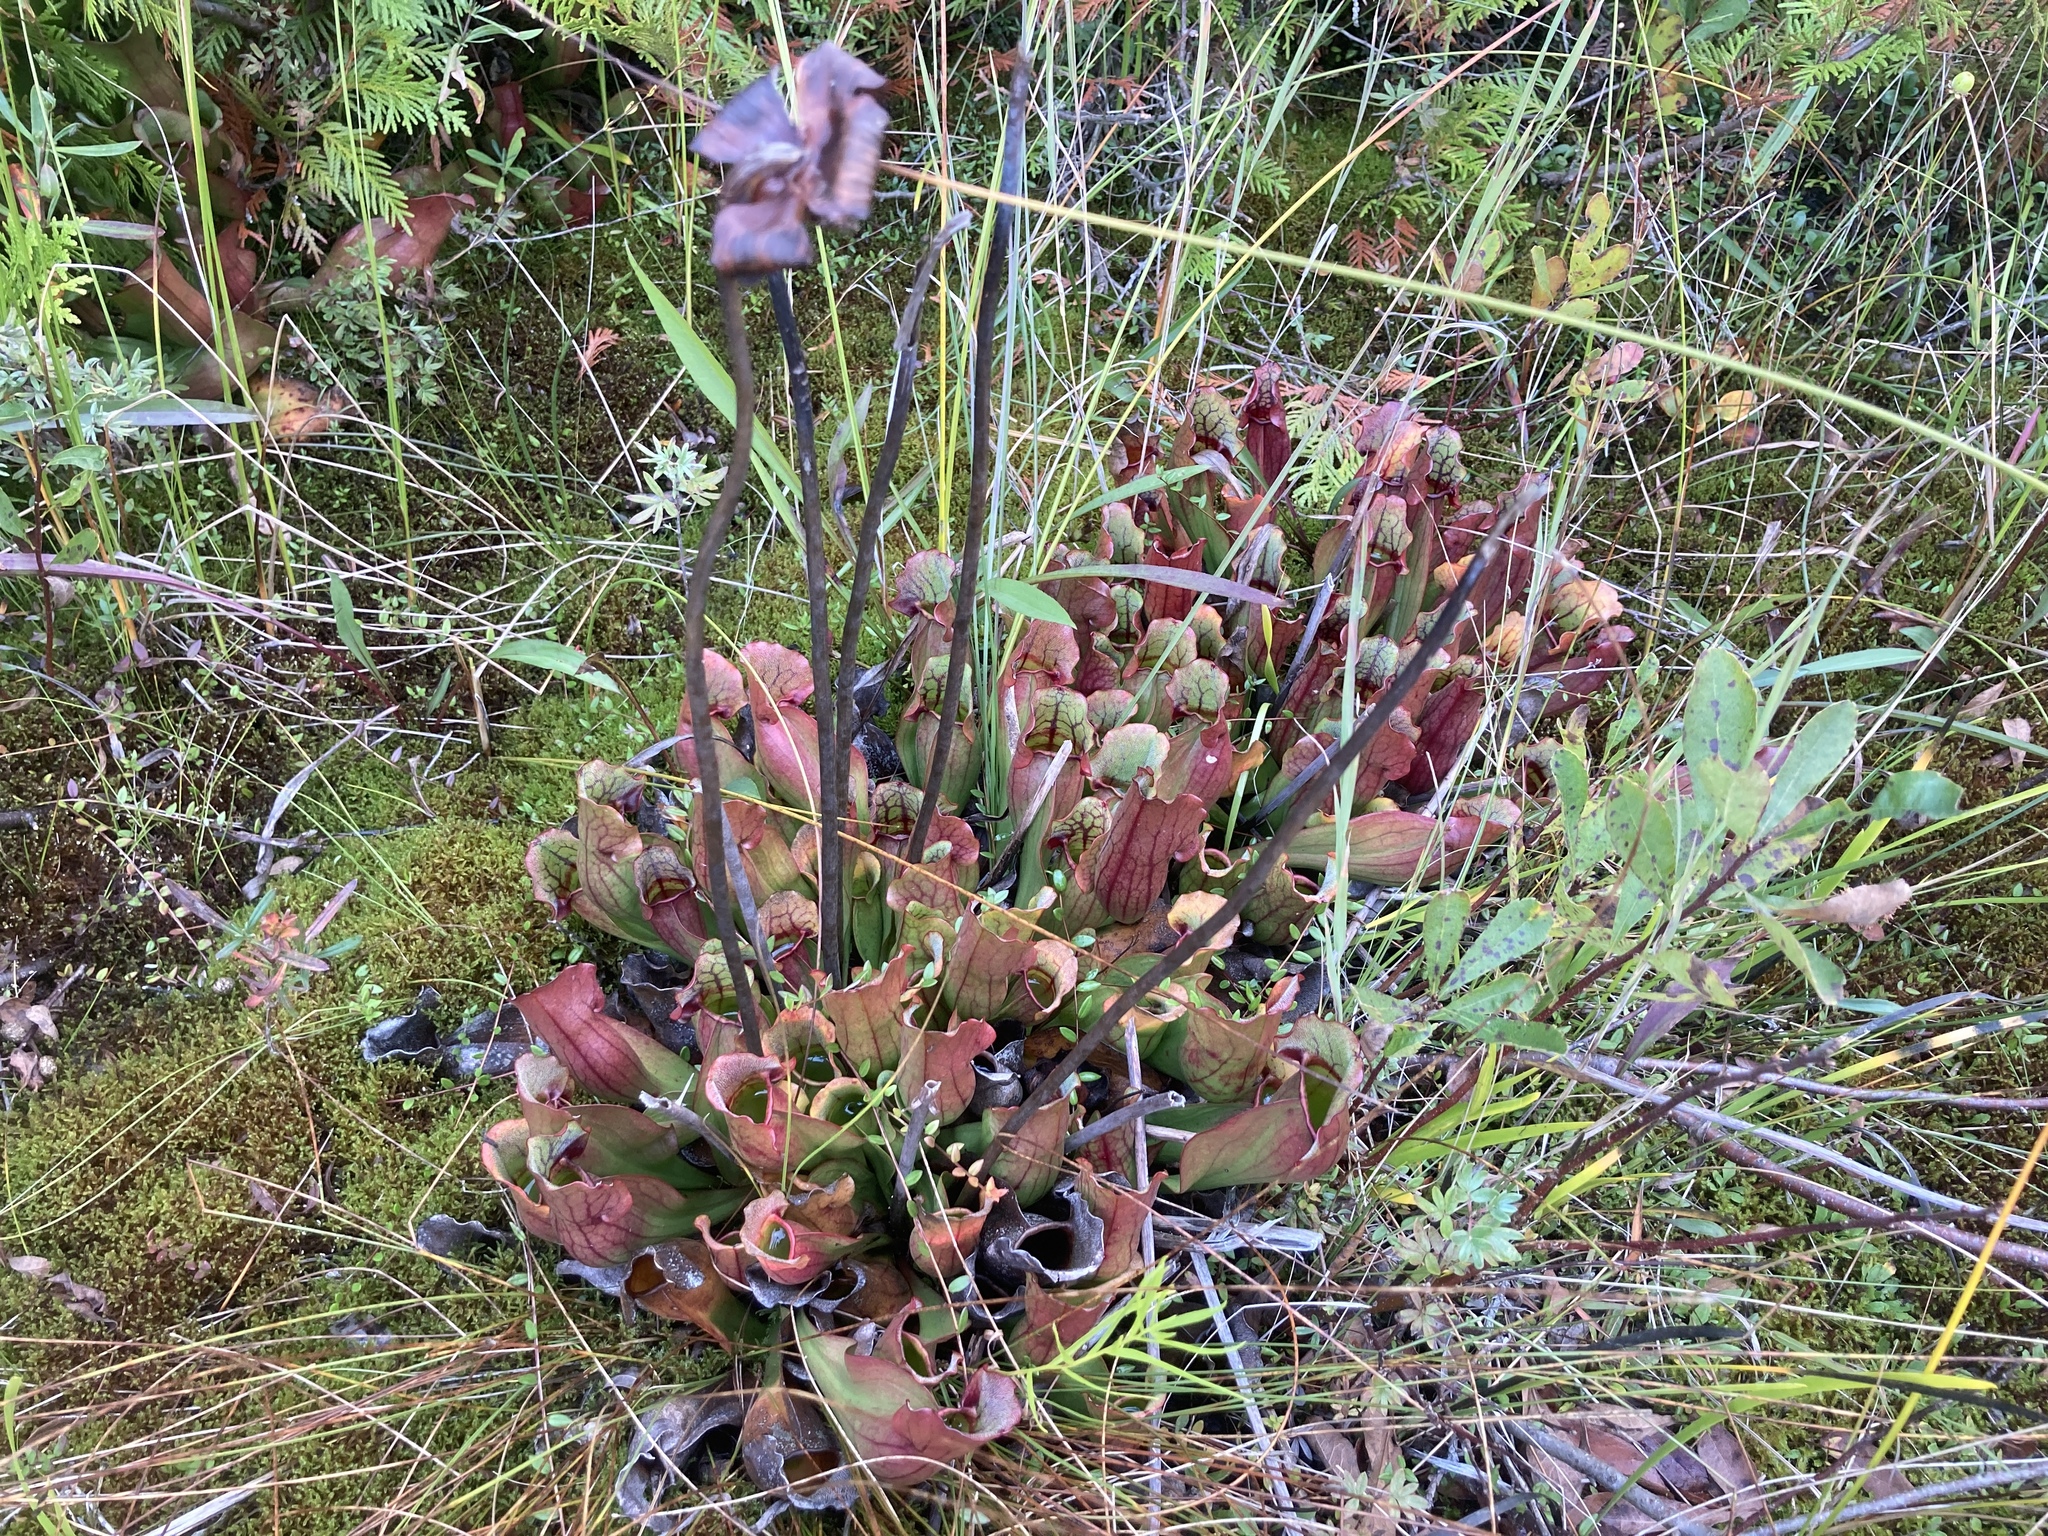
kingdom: Plantae
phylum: Tracheophyta
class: Magnoliopsida
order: Ericales
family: Sarraceniaceae
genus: Sarracenia
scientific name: Sarracenia purpurea
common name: Pitcherplant
